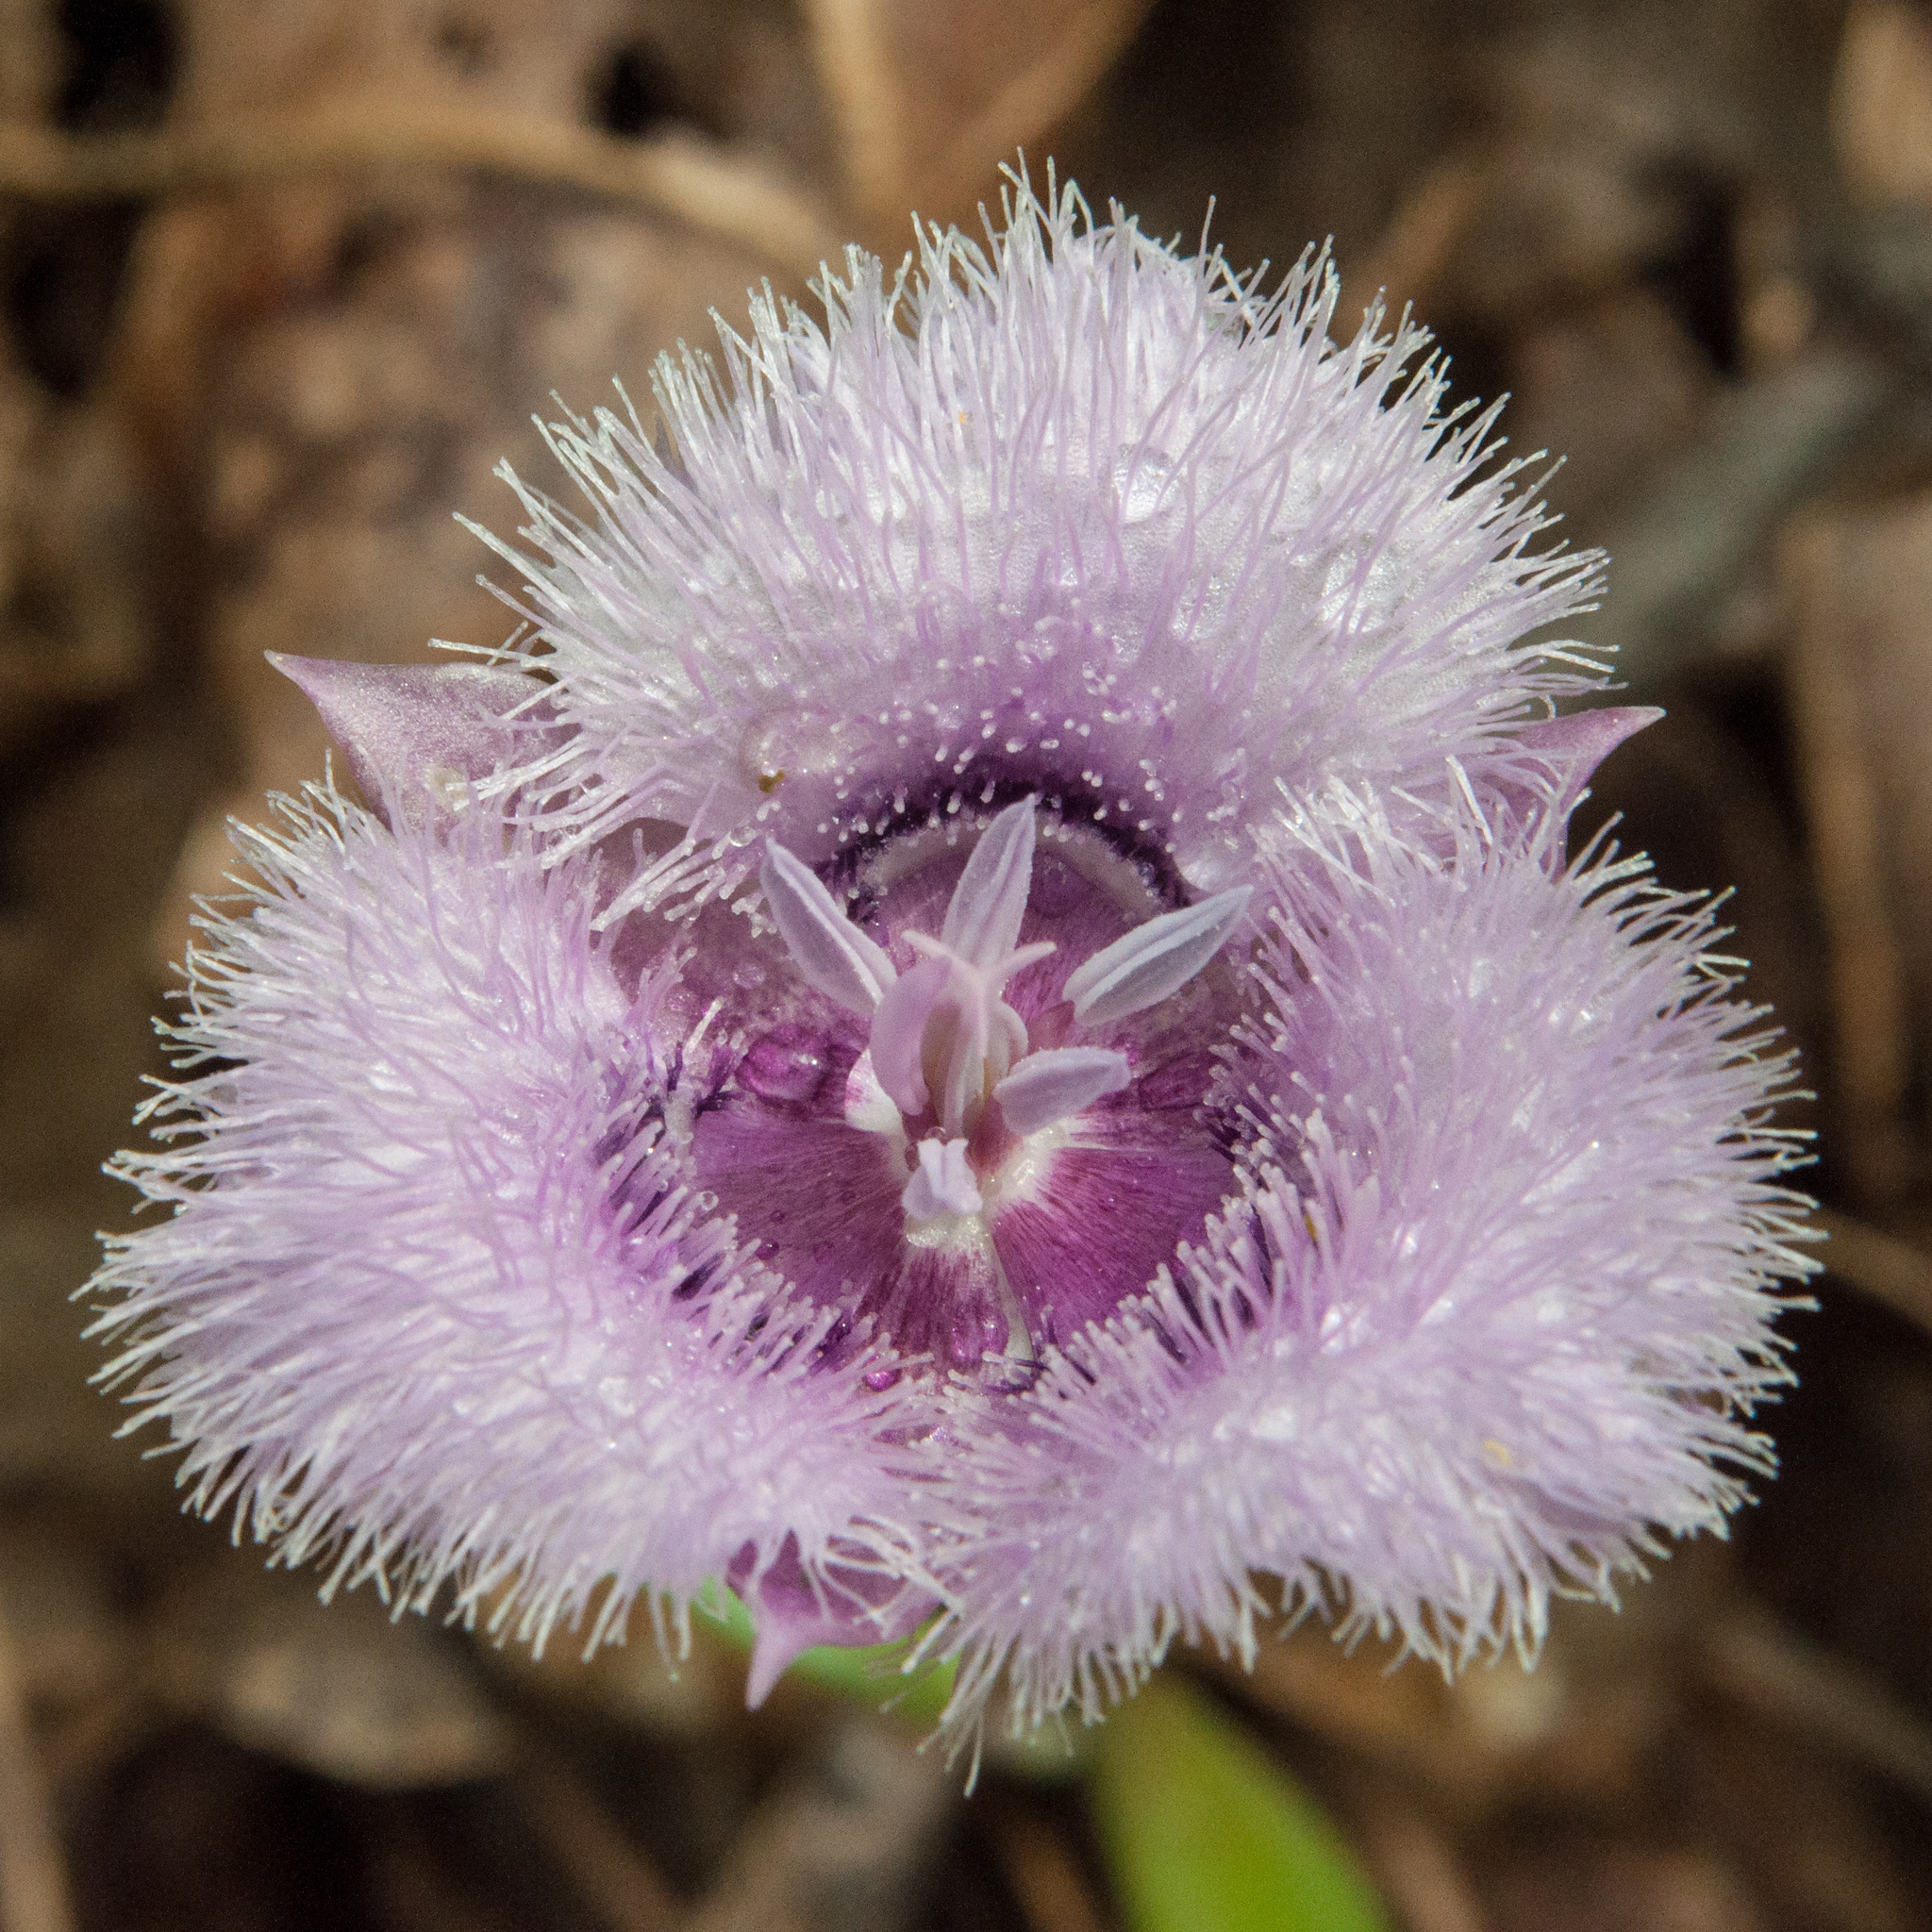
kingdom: Plantae
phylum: Tracheophyta
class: Liliopsida
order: Liliales
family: Liliaceae
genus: Calochortus
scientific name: Calochortus tolmiei
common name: Pussy-ears
